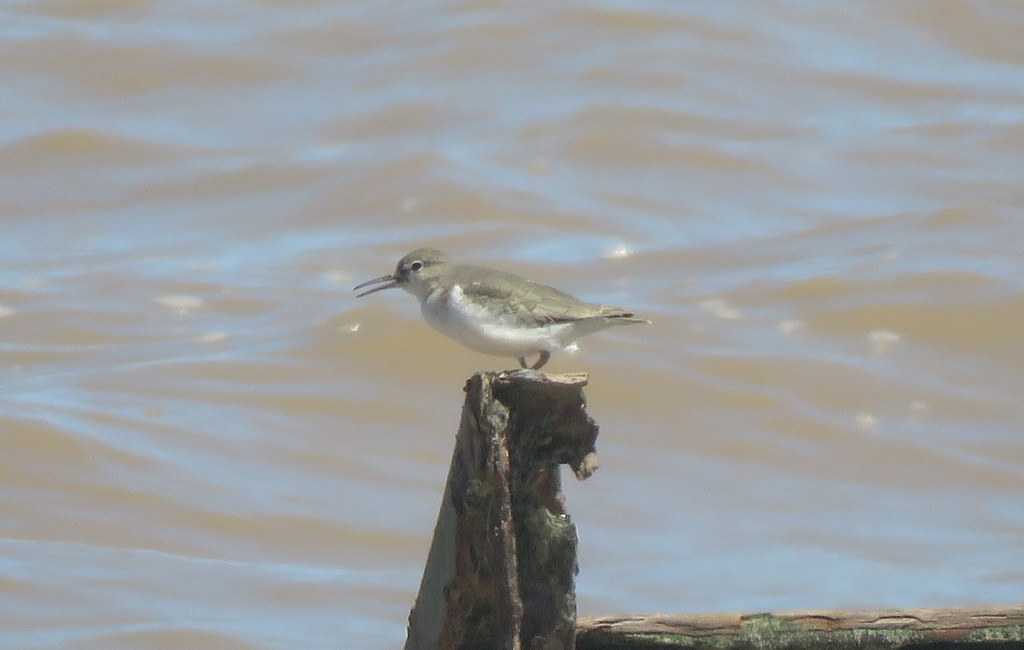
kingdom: Animalia
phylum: Chordata
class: Aves
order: Charadriiformes
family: Scolopacidae
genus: Actitis
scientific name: Actitis macularius
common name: Spotted sandpiper
